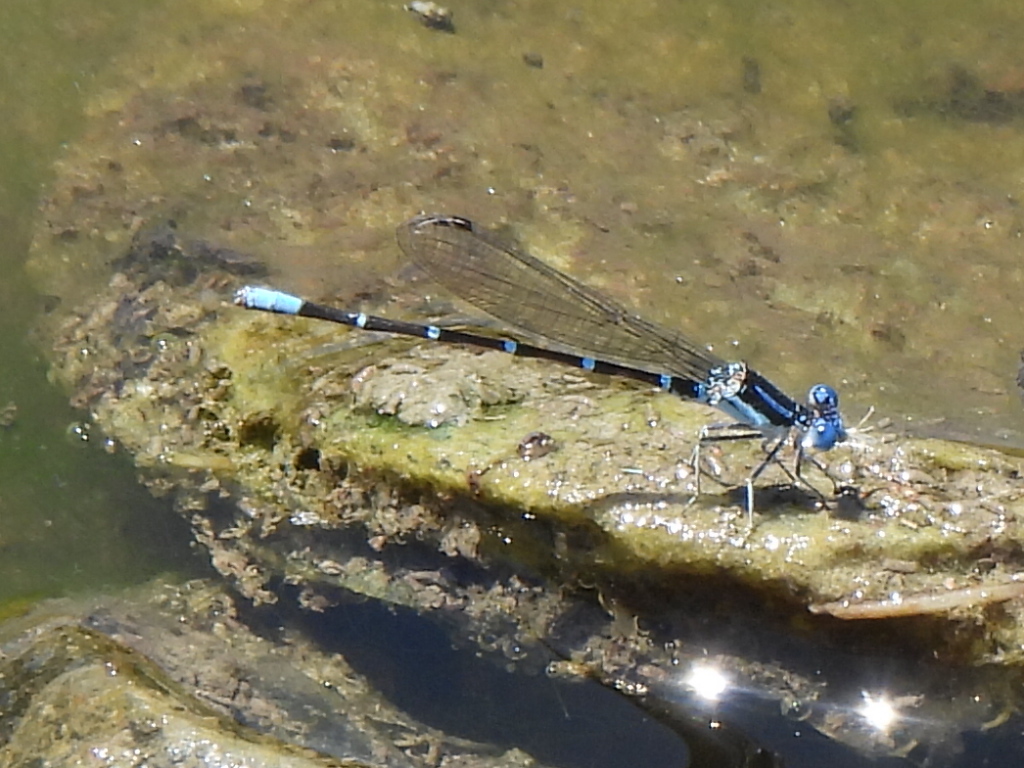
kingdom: Animalia
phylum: Arthropoda
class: Insecta
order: Odonata
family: Coenagrionidae
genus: Argia
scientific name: Argia sedula
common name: Blue-ringed dancer
